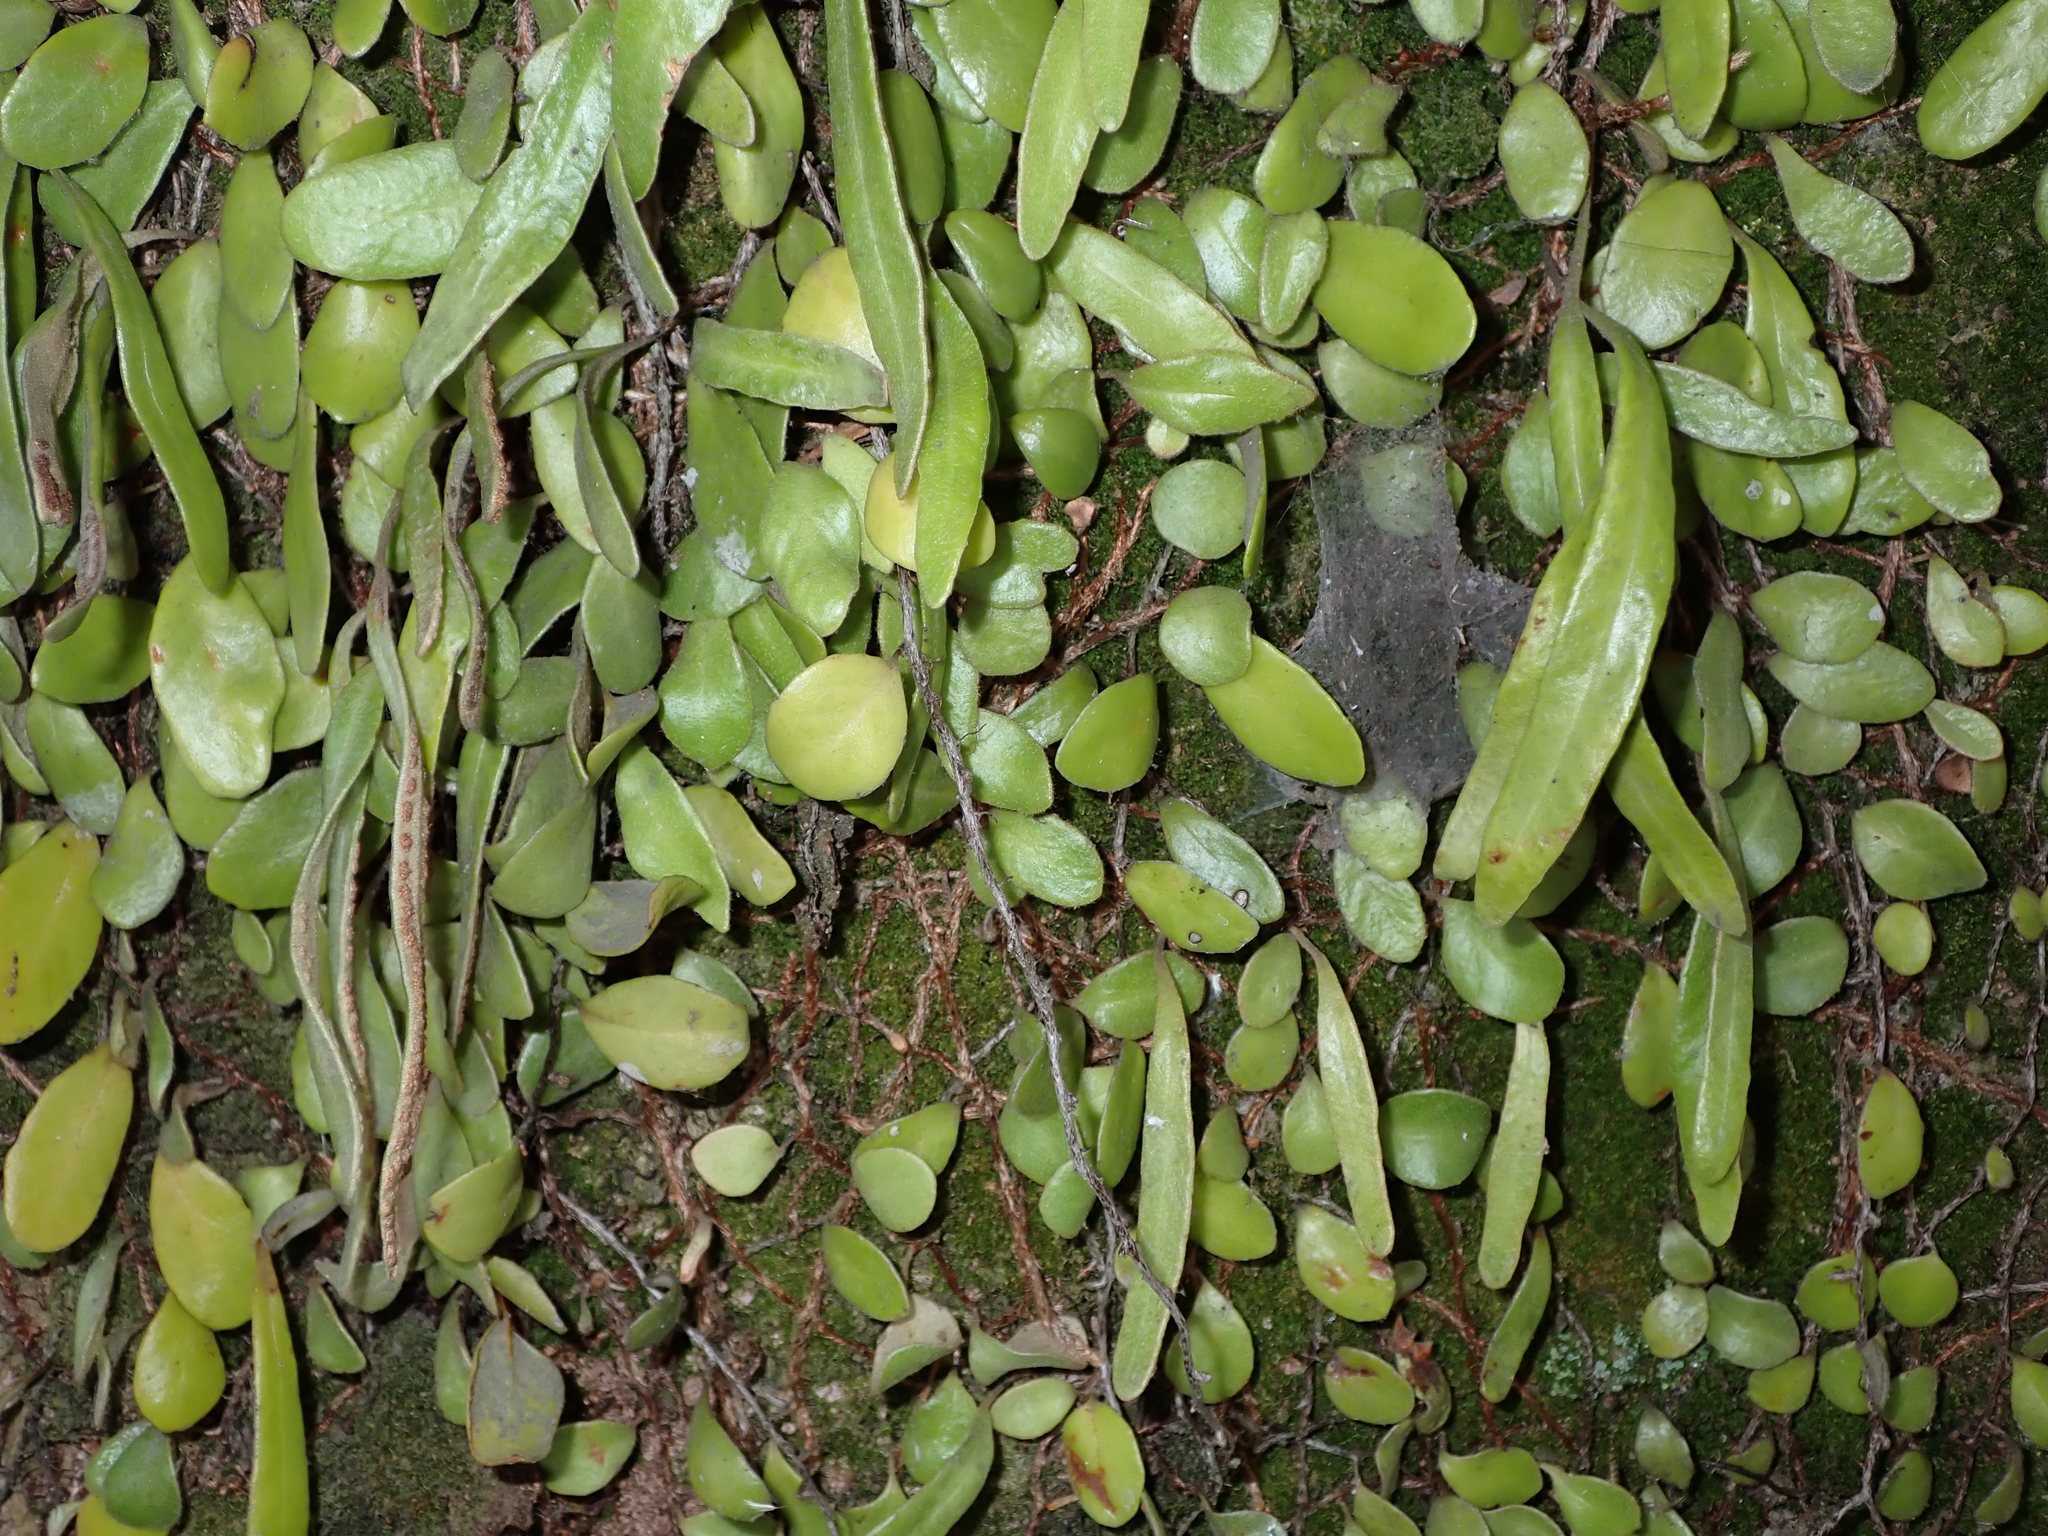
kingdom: Plantae
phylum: Tracheophyta
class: Polypodiopsida
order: Polypodiales
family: Polypodiaceae
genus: Pyrrosia
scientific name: Pyrrosia eleagnifolia
